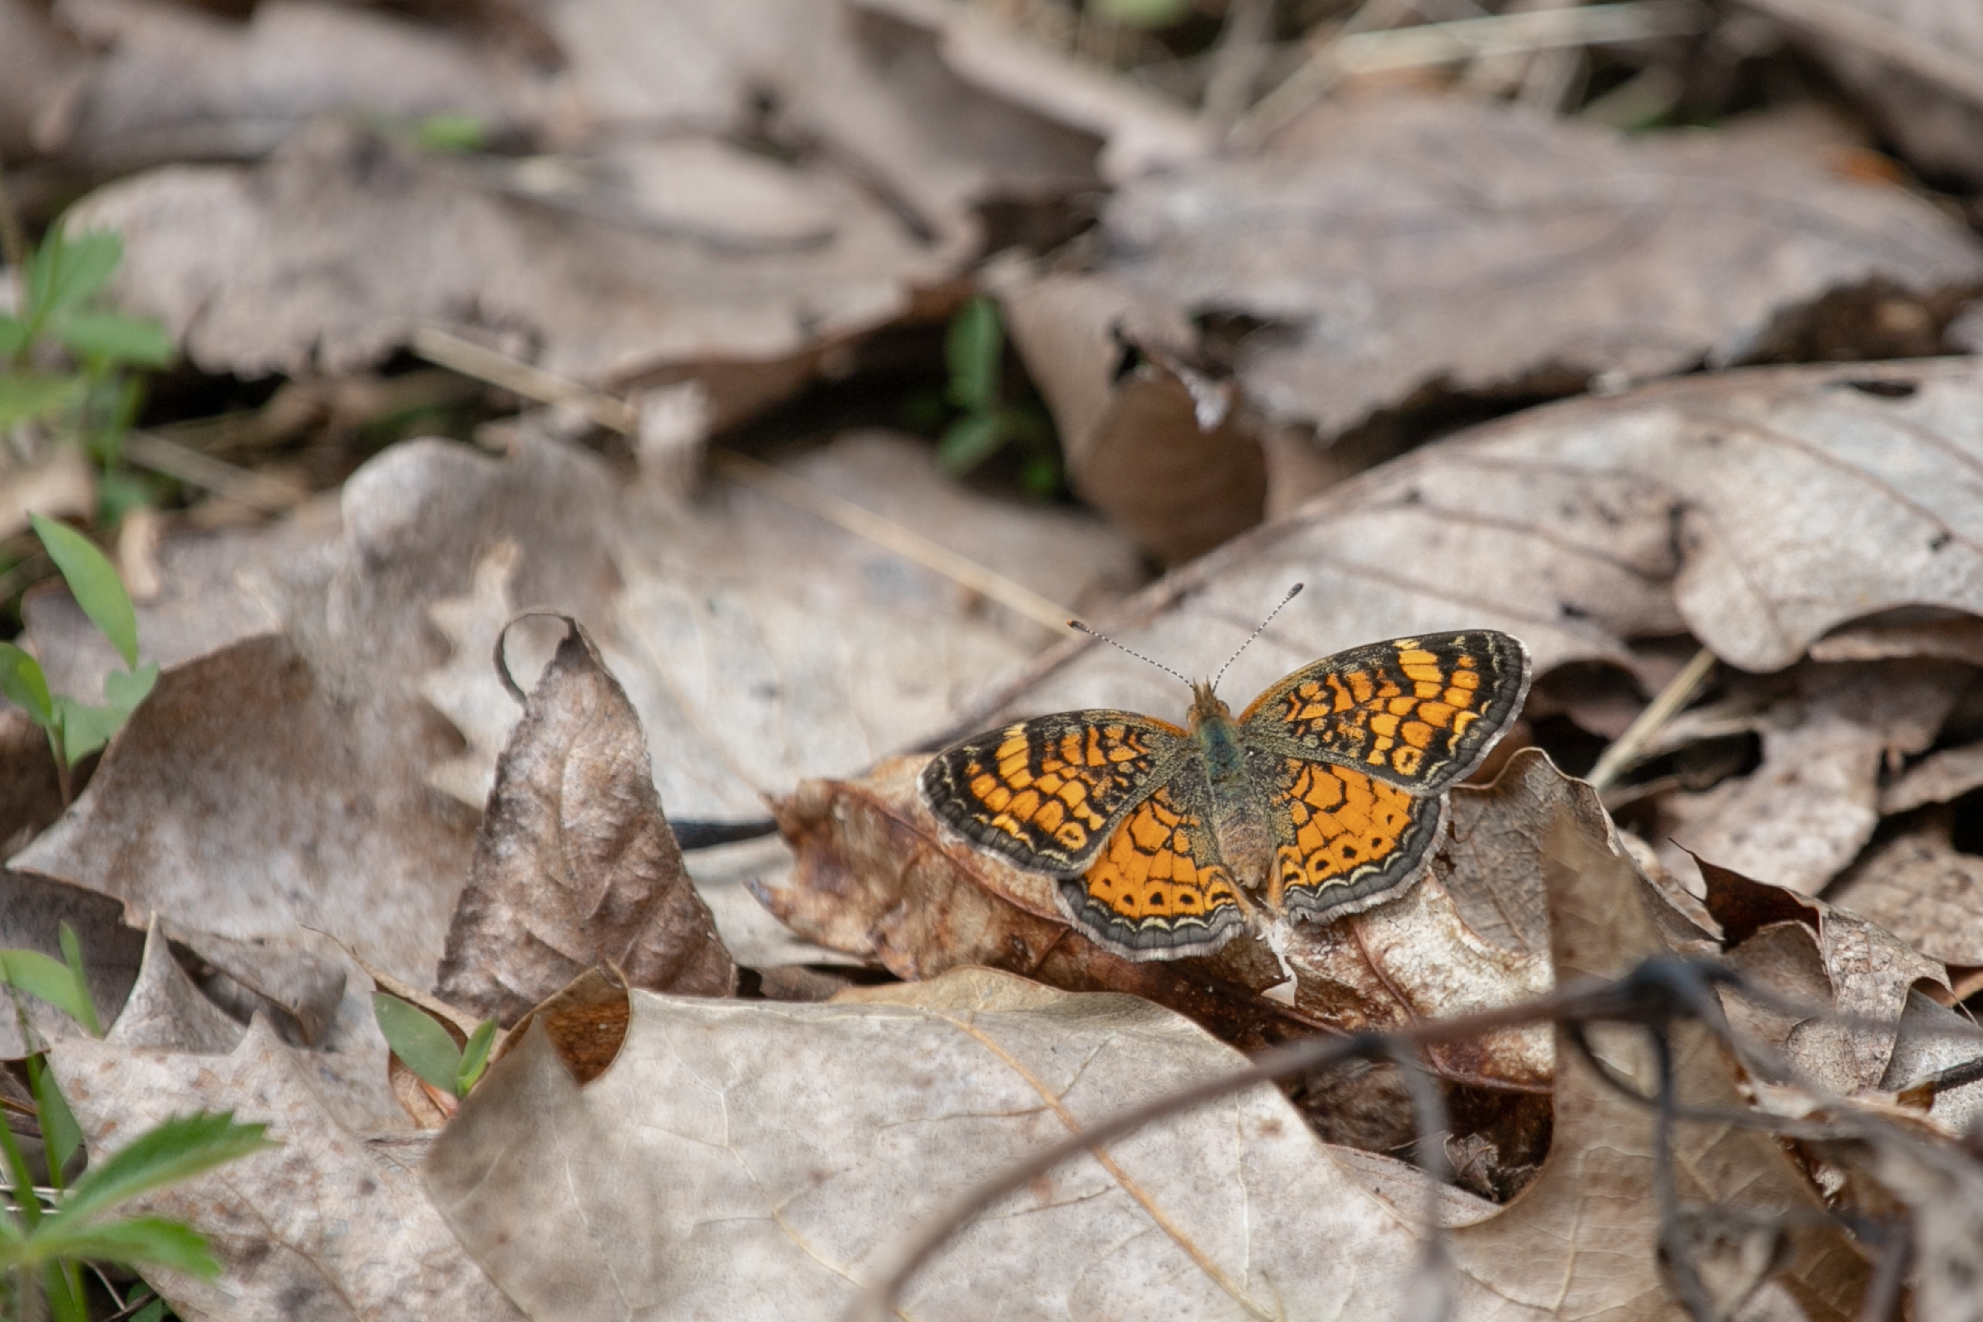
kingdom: Animalia
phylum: Arthropoda
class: Insecta
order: Lepidoptera
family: Nymphalidae
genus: Phyciodes
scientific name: Phyciodes tharos
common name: Pearl crescent
